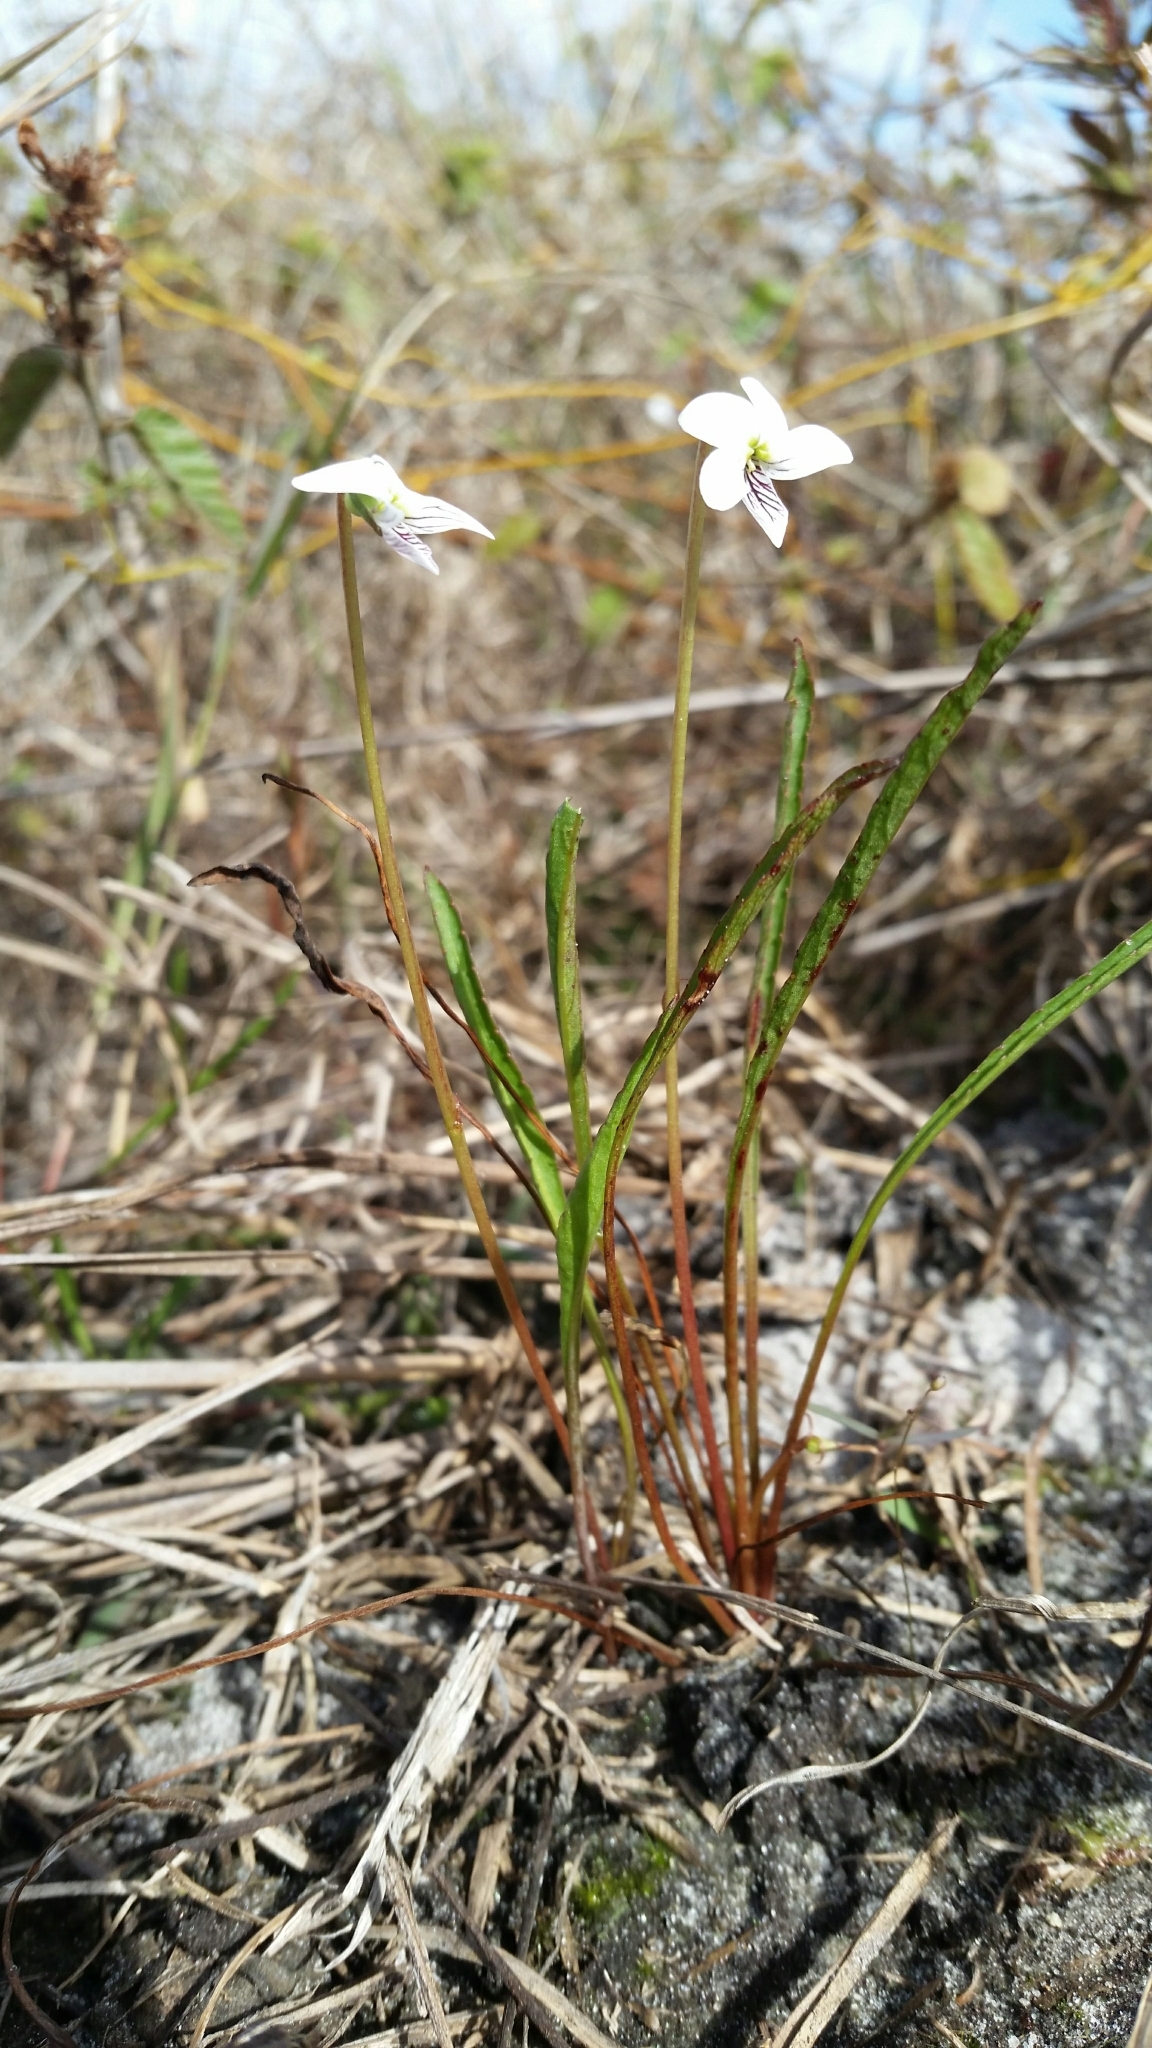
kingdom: Plantae
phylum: Tracheophyta
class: Magnoliopsida
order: Malpighiales
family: Violaceae
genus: Viola
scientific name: Viola vittata
